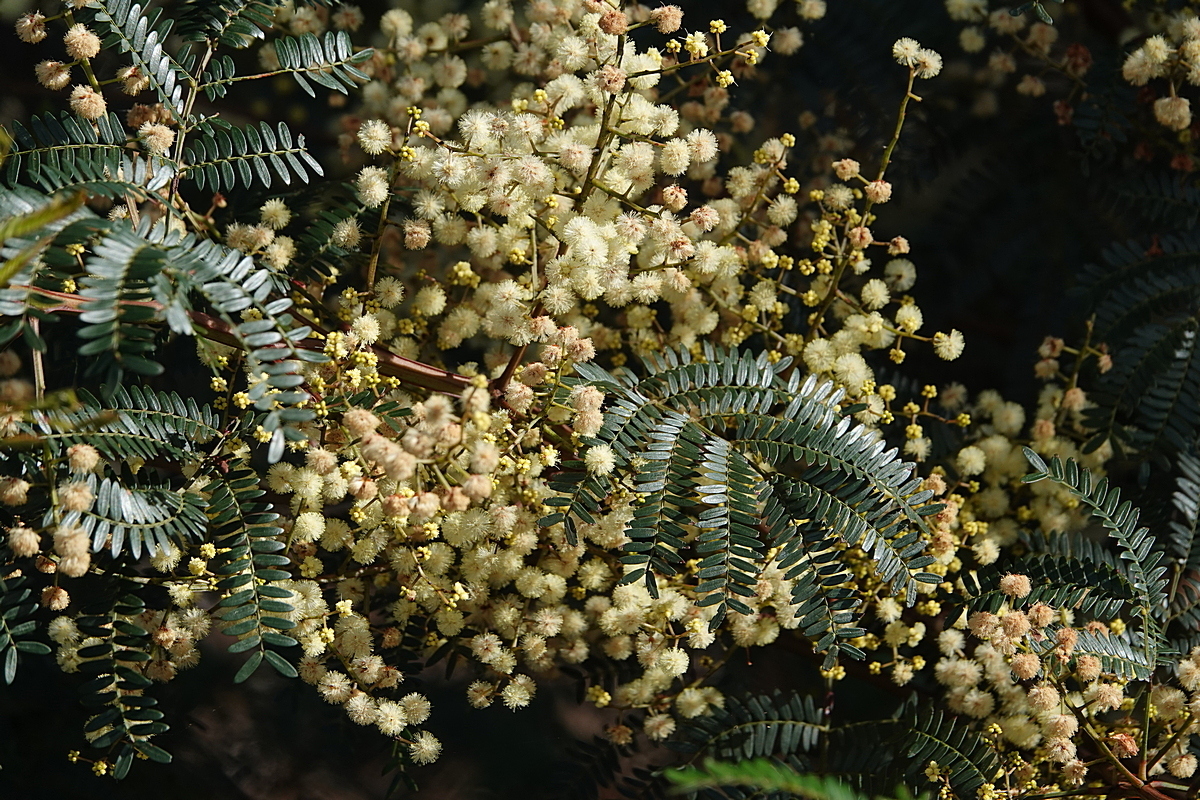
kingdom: Plantae
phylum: Tracheophyta
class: Magnoliopsida
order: Fabales
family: Fabaceae
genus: Acacia
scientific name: Acacia terminalis
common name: Cedar wattle
